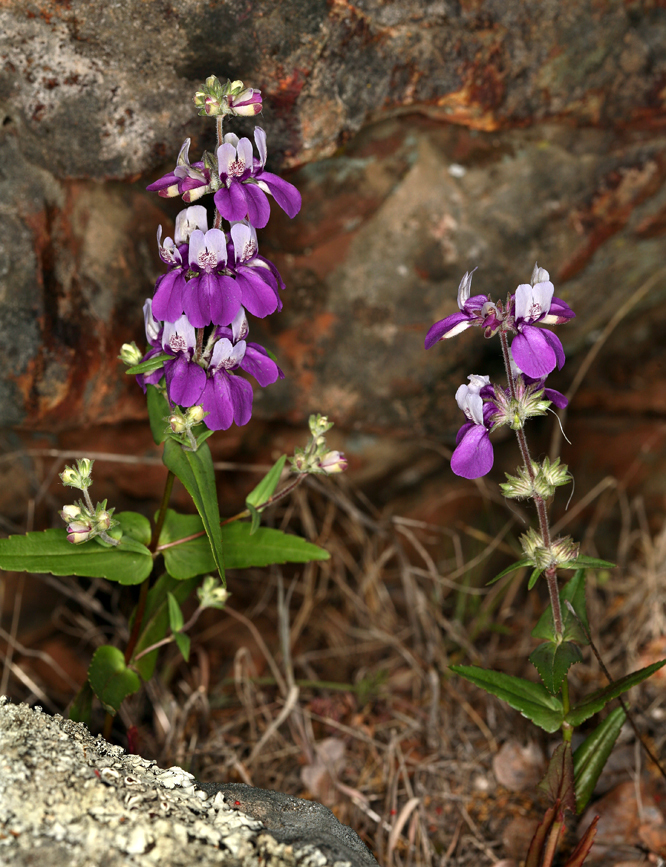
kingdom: Plantae
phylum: Tracheophyta
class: Magnoliopsida
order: Lamiales
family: Plantaginaceae
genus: Collinsia
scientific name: Collinsia heterophylla
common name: Chinese-houses
